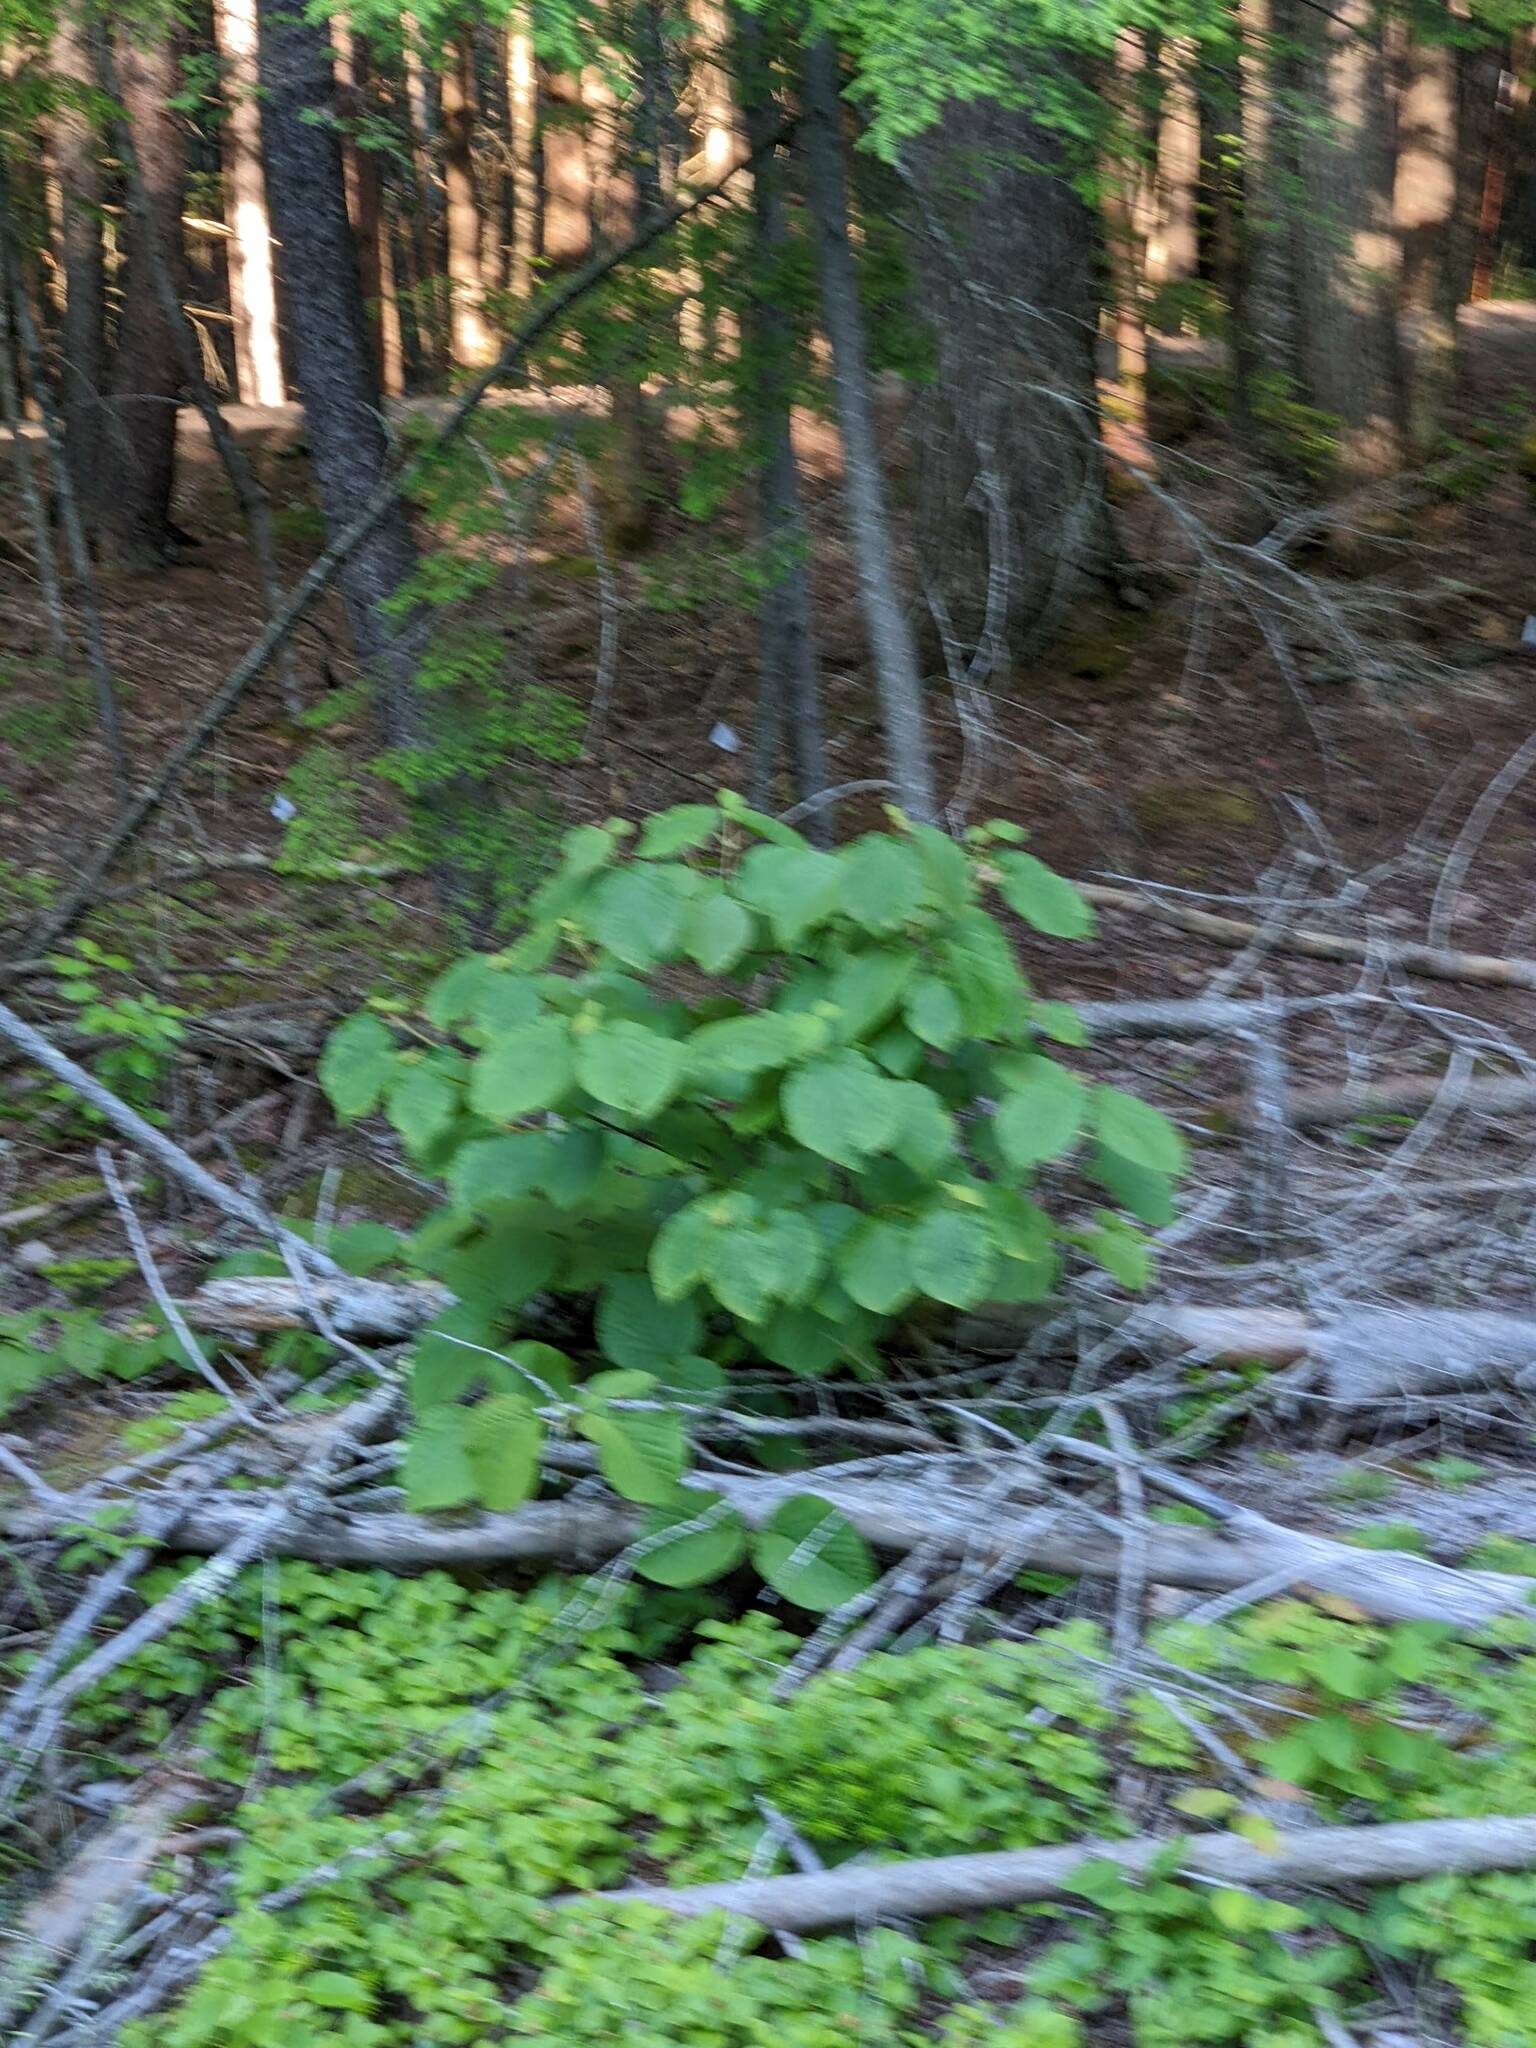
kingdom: Plantae
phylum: Tracheophyta
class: Magnoliopsida
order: Dipsacales
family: Viburnaceae
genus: Viburnum
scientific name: Viburnum lantanoides
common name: Hobblebush
